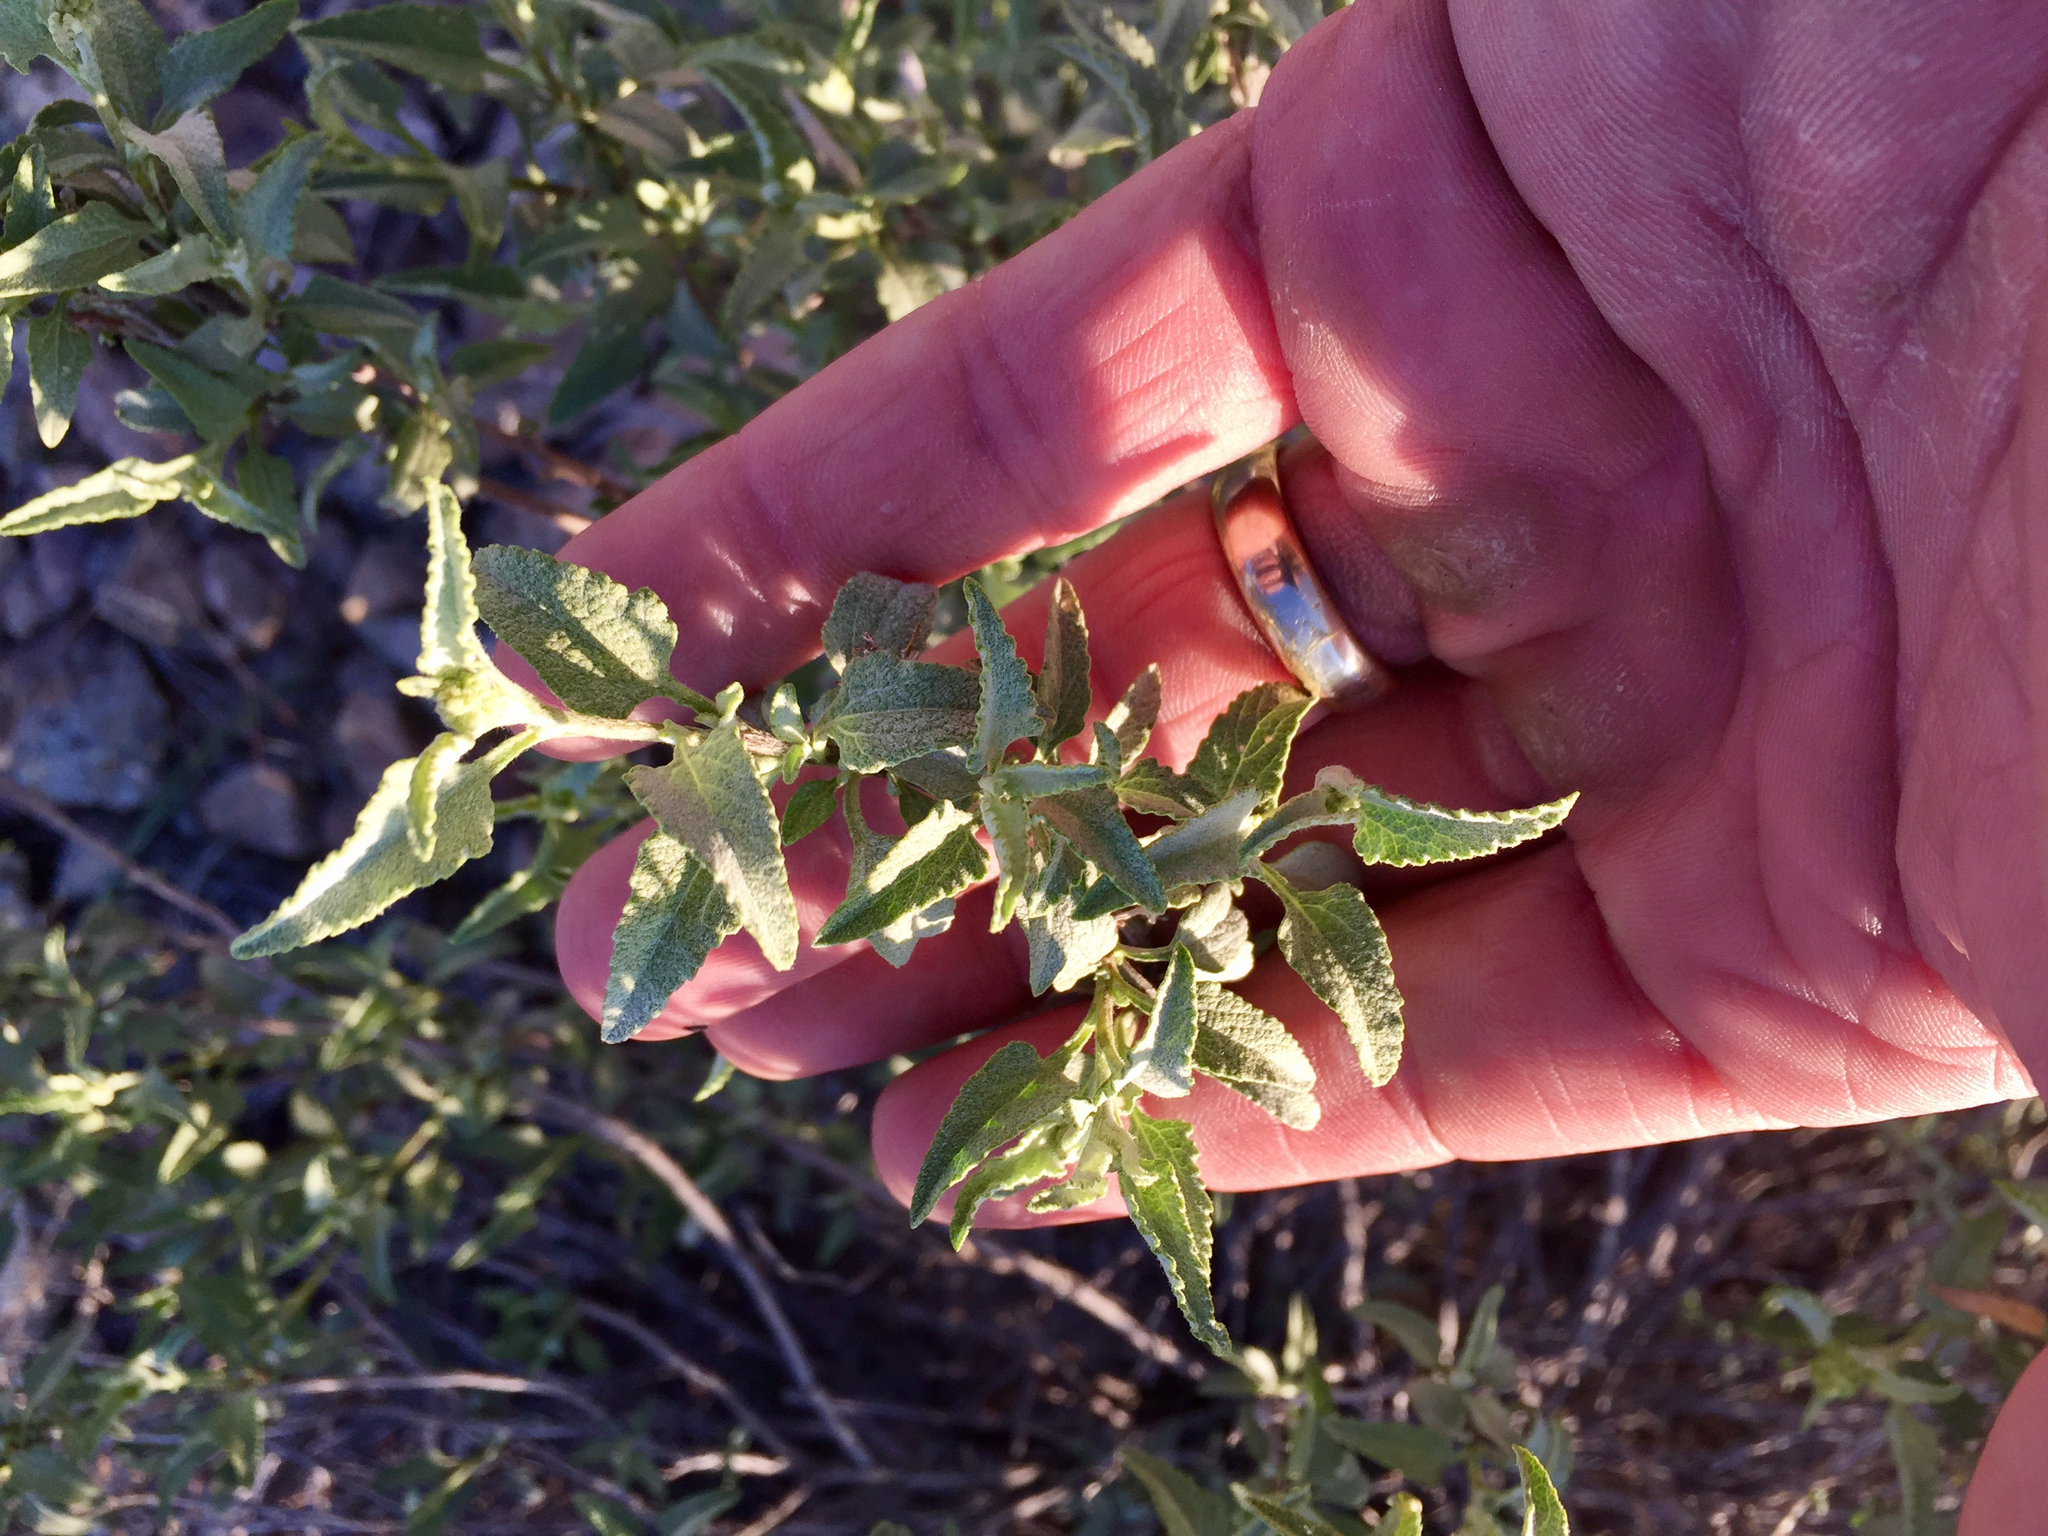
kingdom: Plantae
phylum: Tracheophyta
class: Magnoliopsida
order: Asterales
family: Asteraceae
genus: Ambrosia
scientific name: Ambrosia deltoidea
